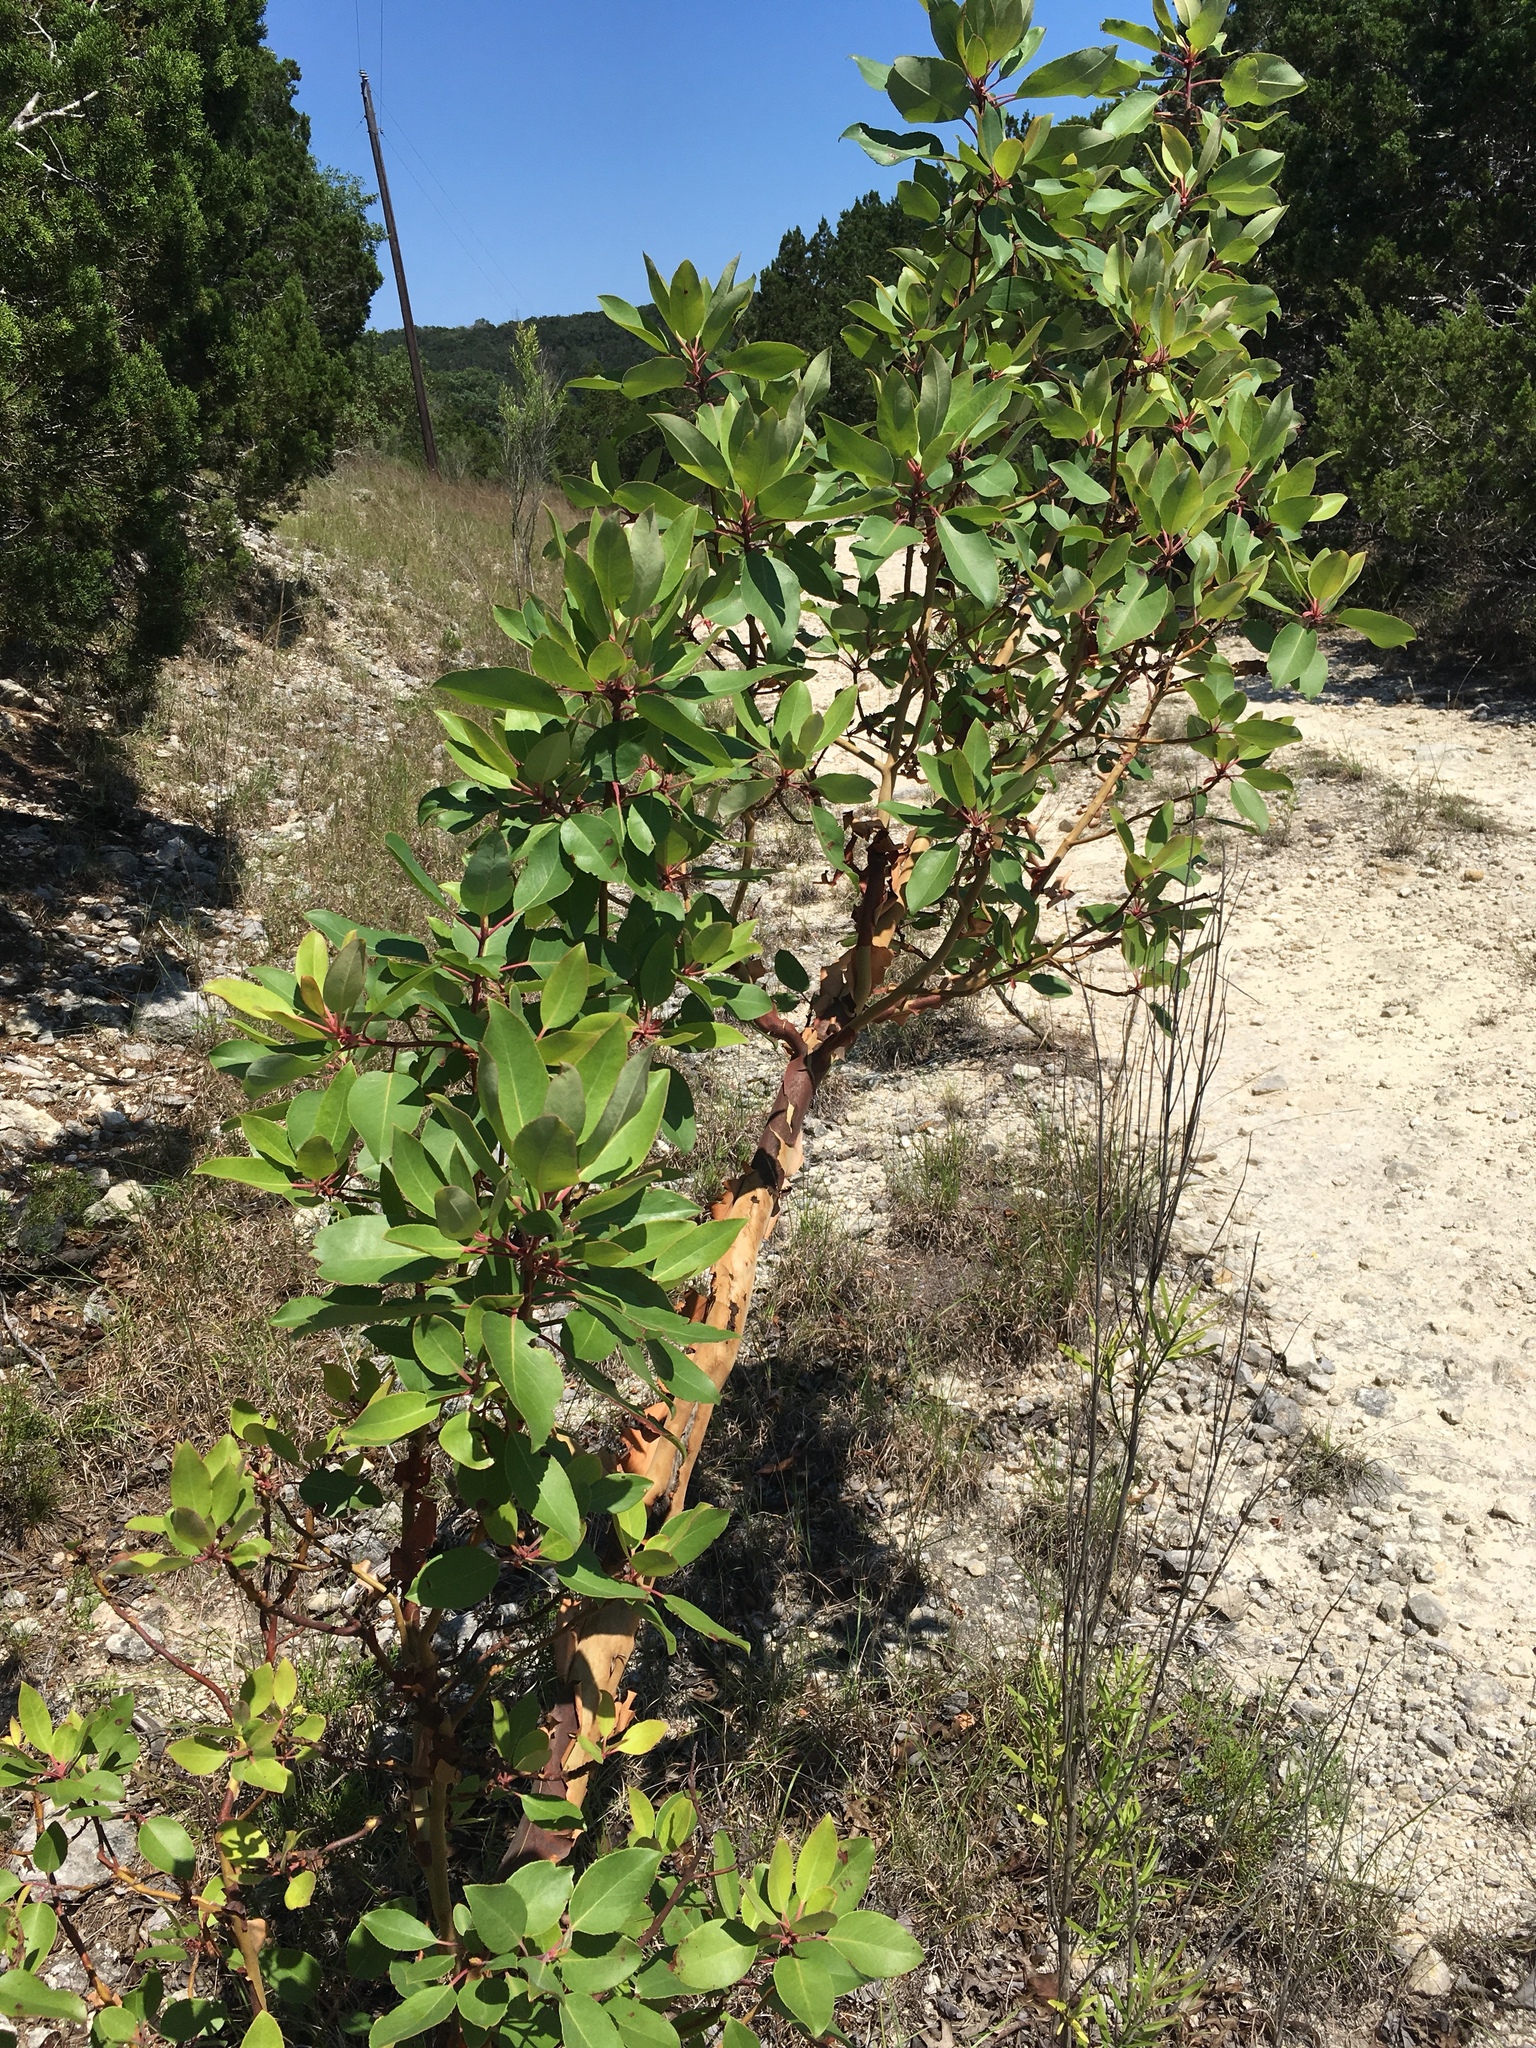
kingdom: Plantae
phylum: Tracheophyta
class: Magnoliopsida
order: Ericales
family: Ericaceae
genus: Arbutus
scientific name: Arbutus xalapensis
